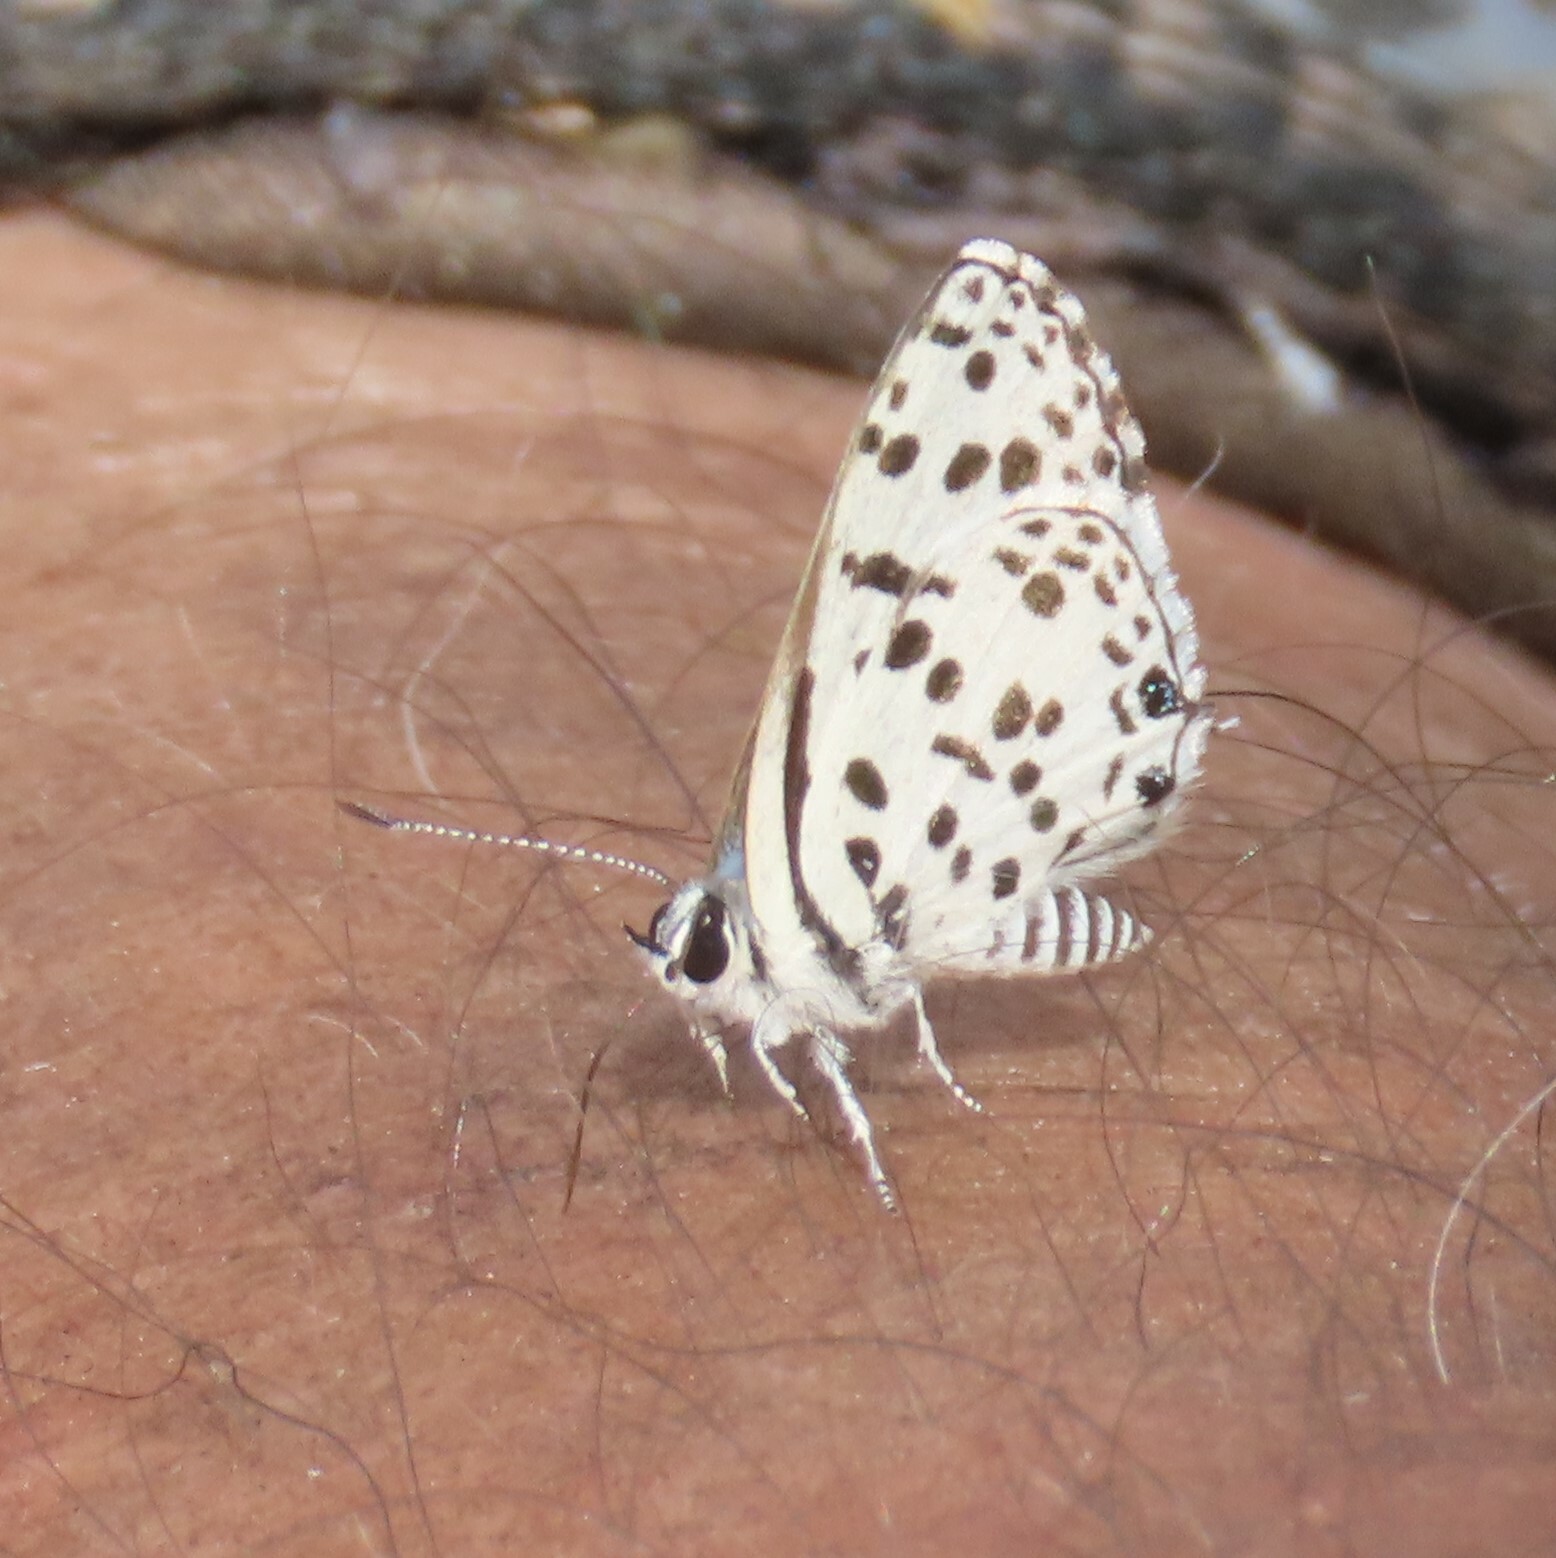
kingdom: Animalia
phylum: Arthropoda
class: Insecta
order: Lepidoptera
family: Lycaenidae
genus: Zintha
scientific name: Zintha hintza
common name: Hintza pierrot
